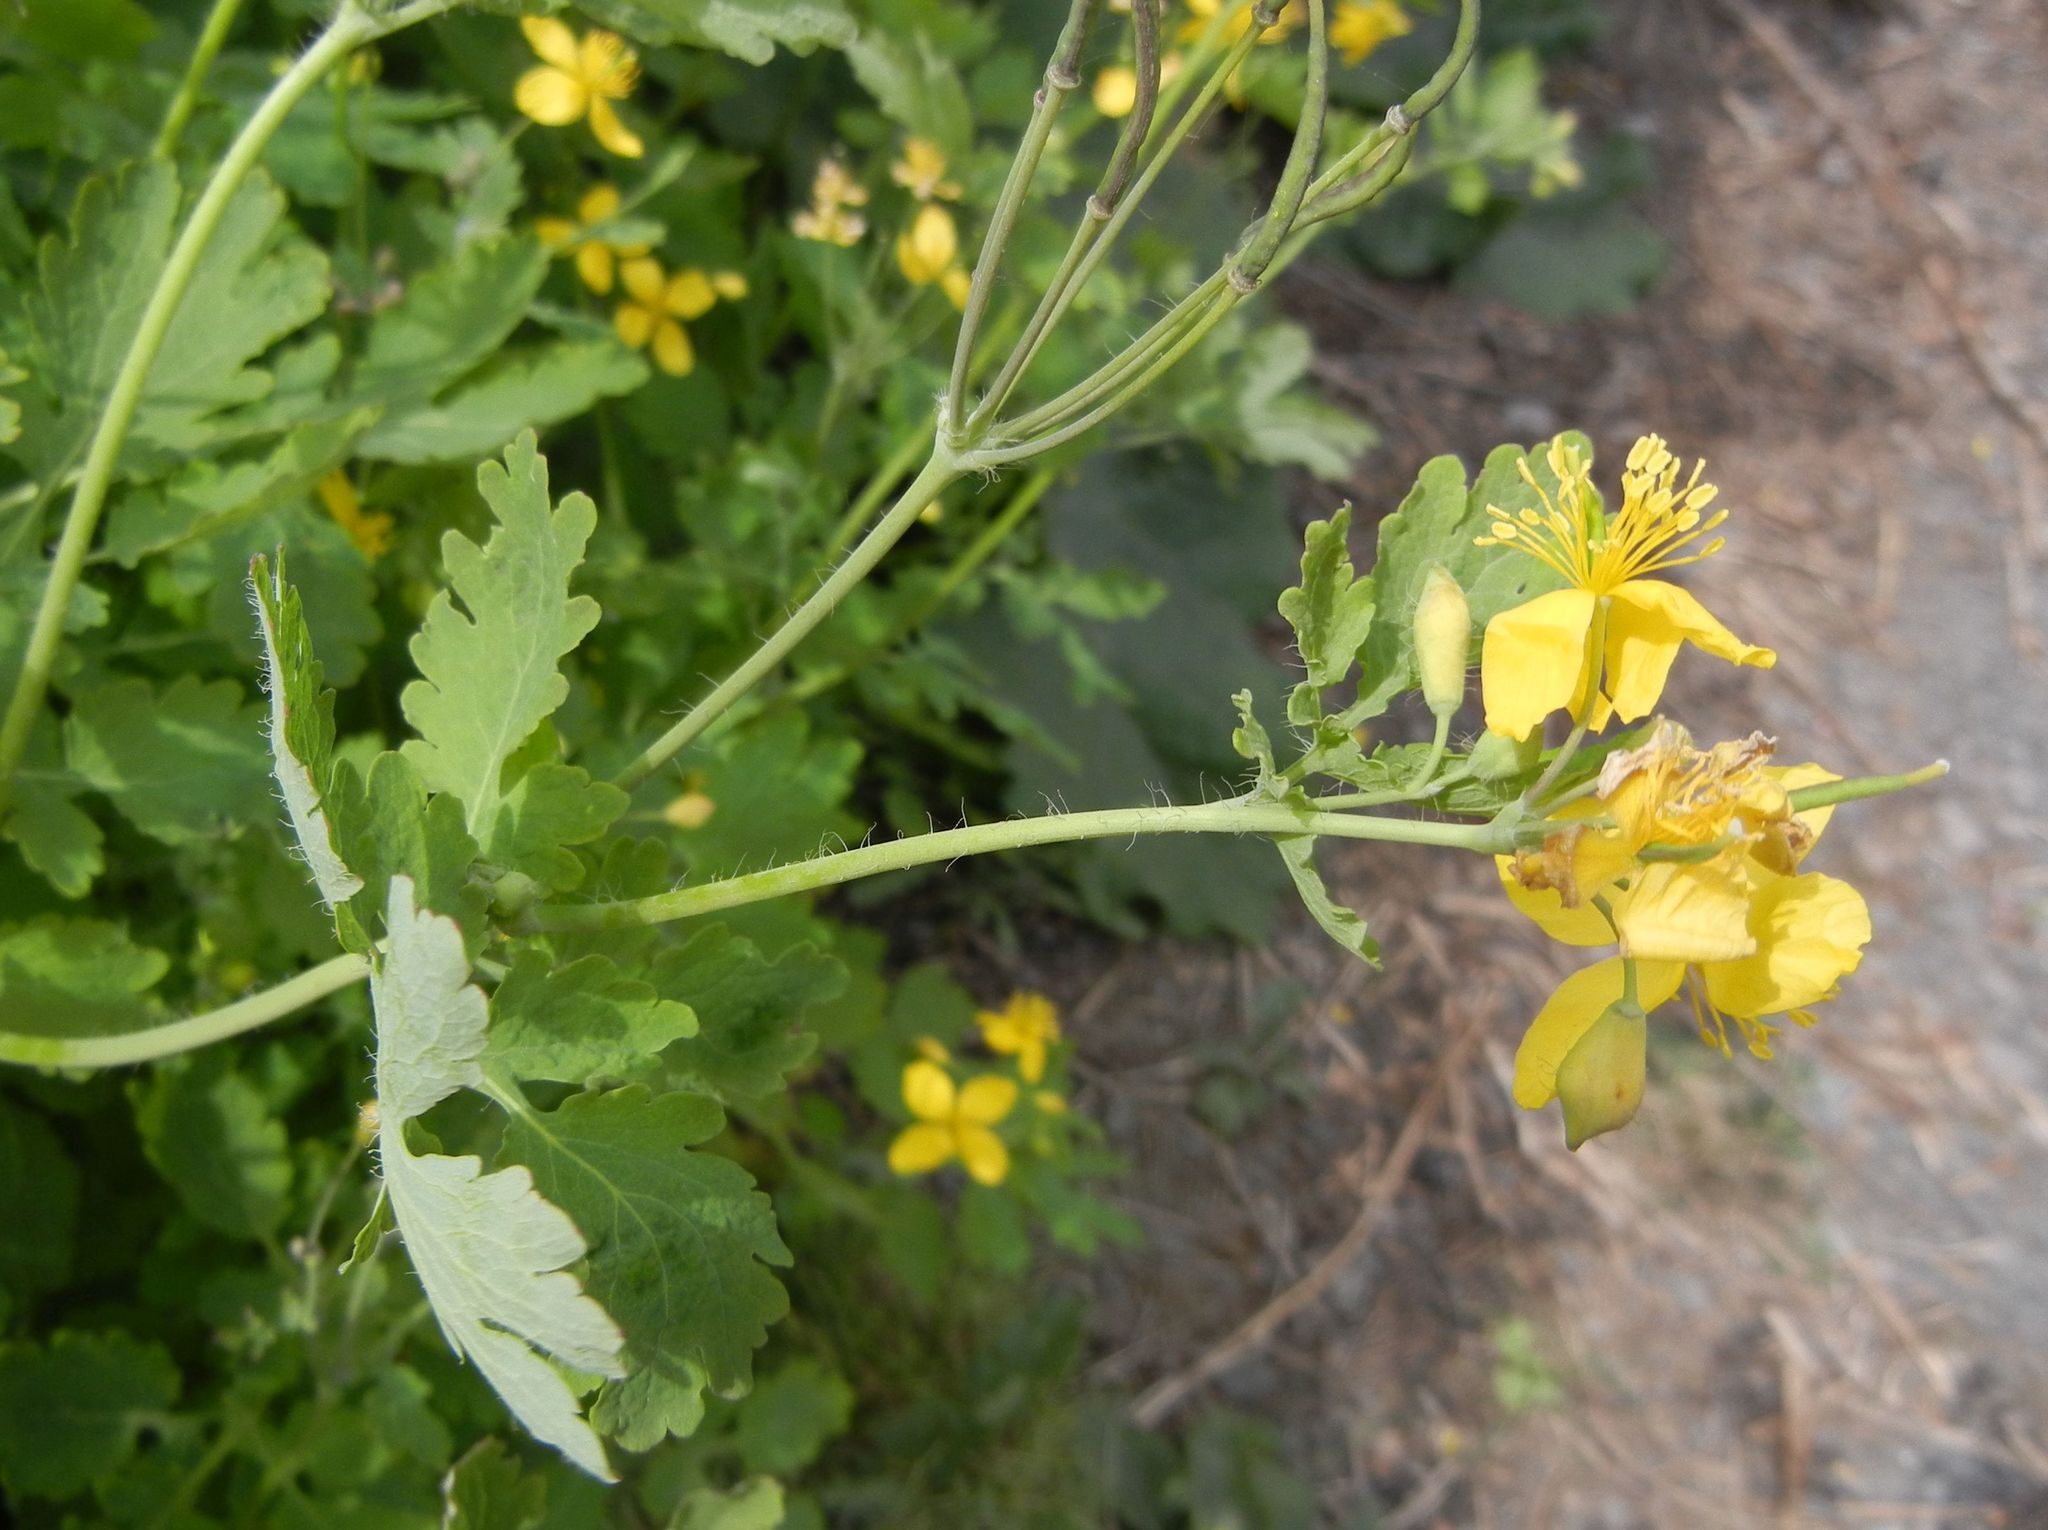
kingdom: Plantae
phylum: Tracheophyta
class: Magnoliopsida
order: Ranunculales
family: Papaveraceae
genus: Chelidonium
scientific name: Chelidonium majus
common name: Greater celandine
